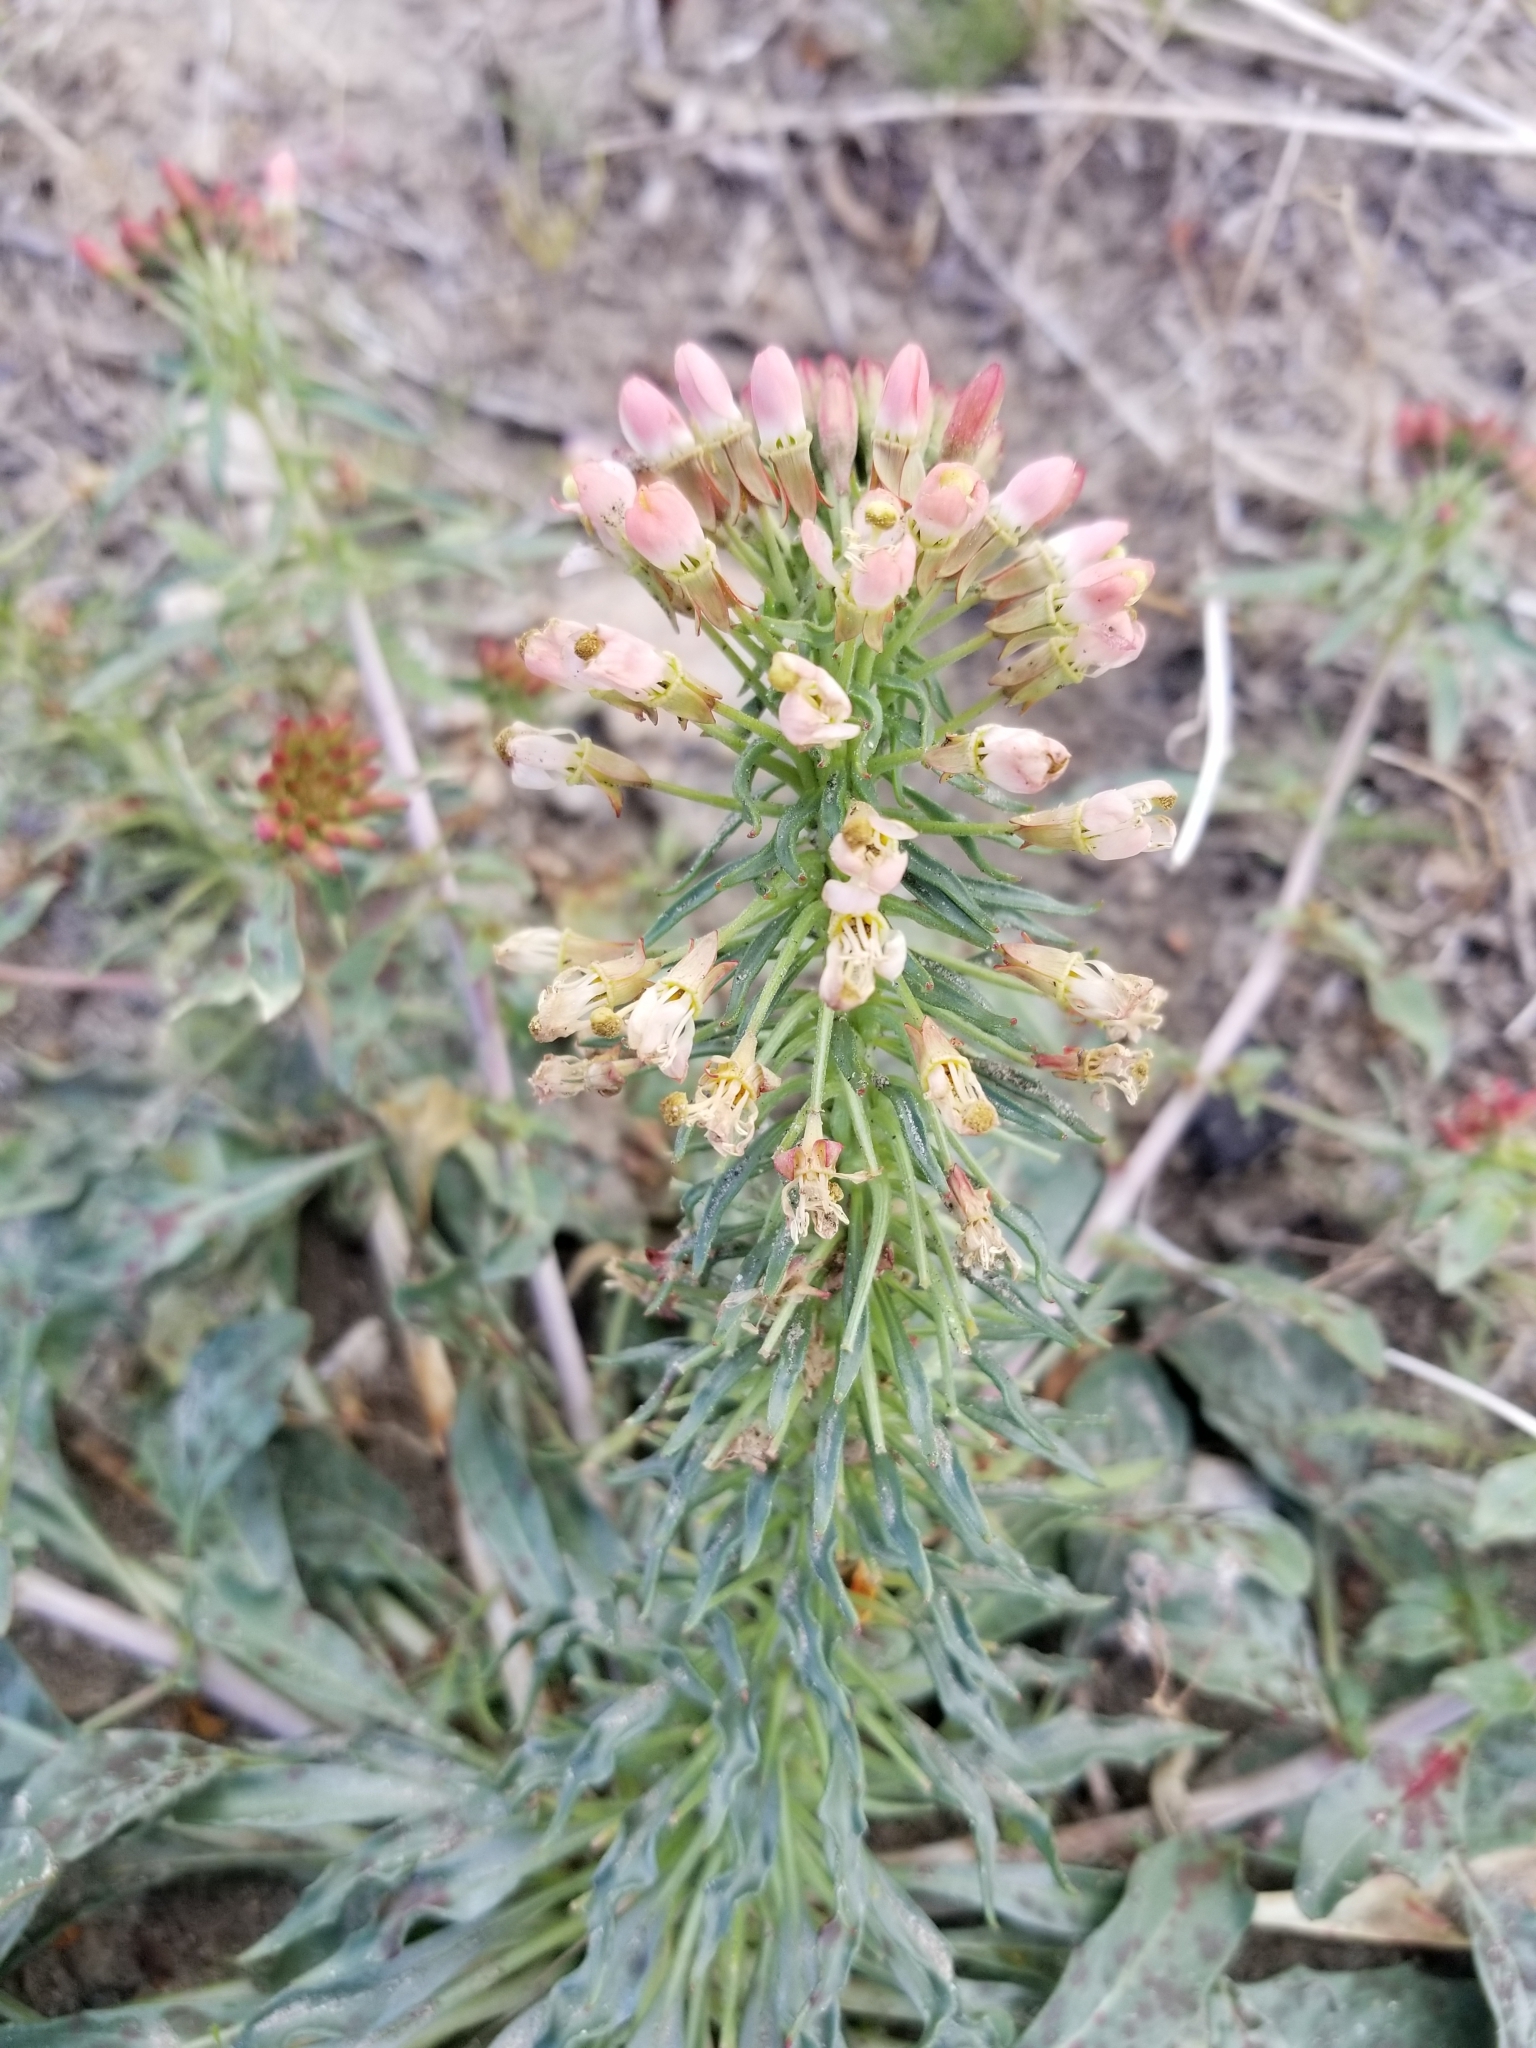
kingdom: Plantae
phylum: Tracheophyta
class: Magnoliopsida
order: Myrtales
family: Onagraceae
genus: Eremothera
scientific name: Eremothera boothii
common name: Booth's evening primrose
